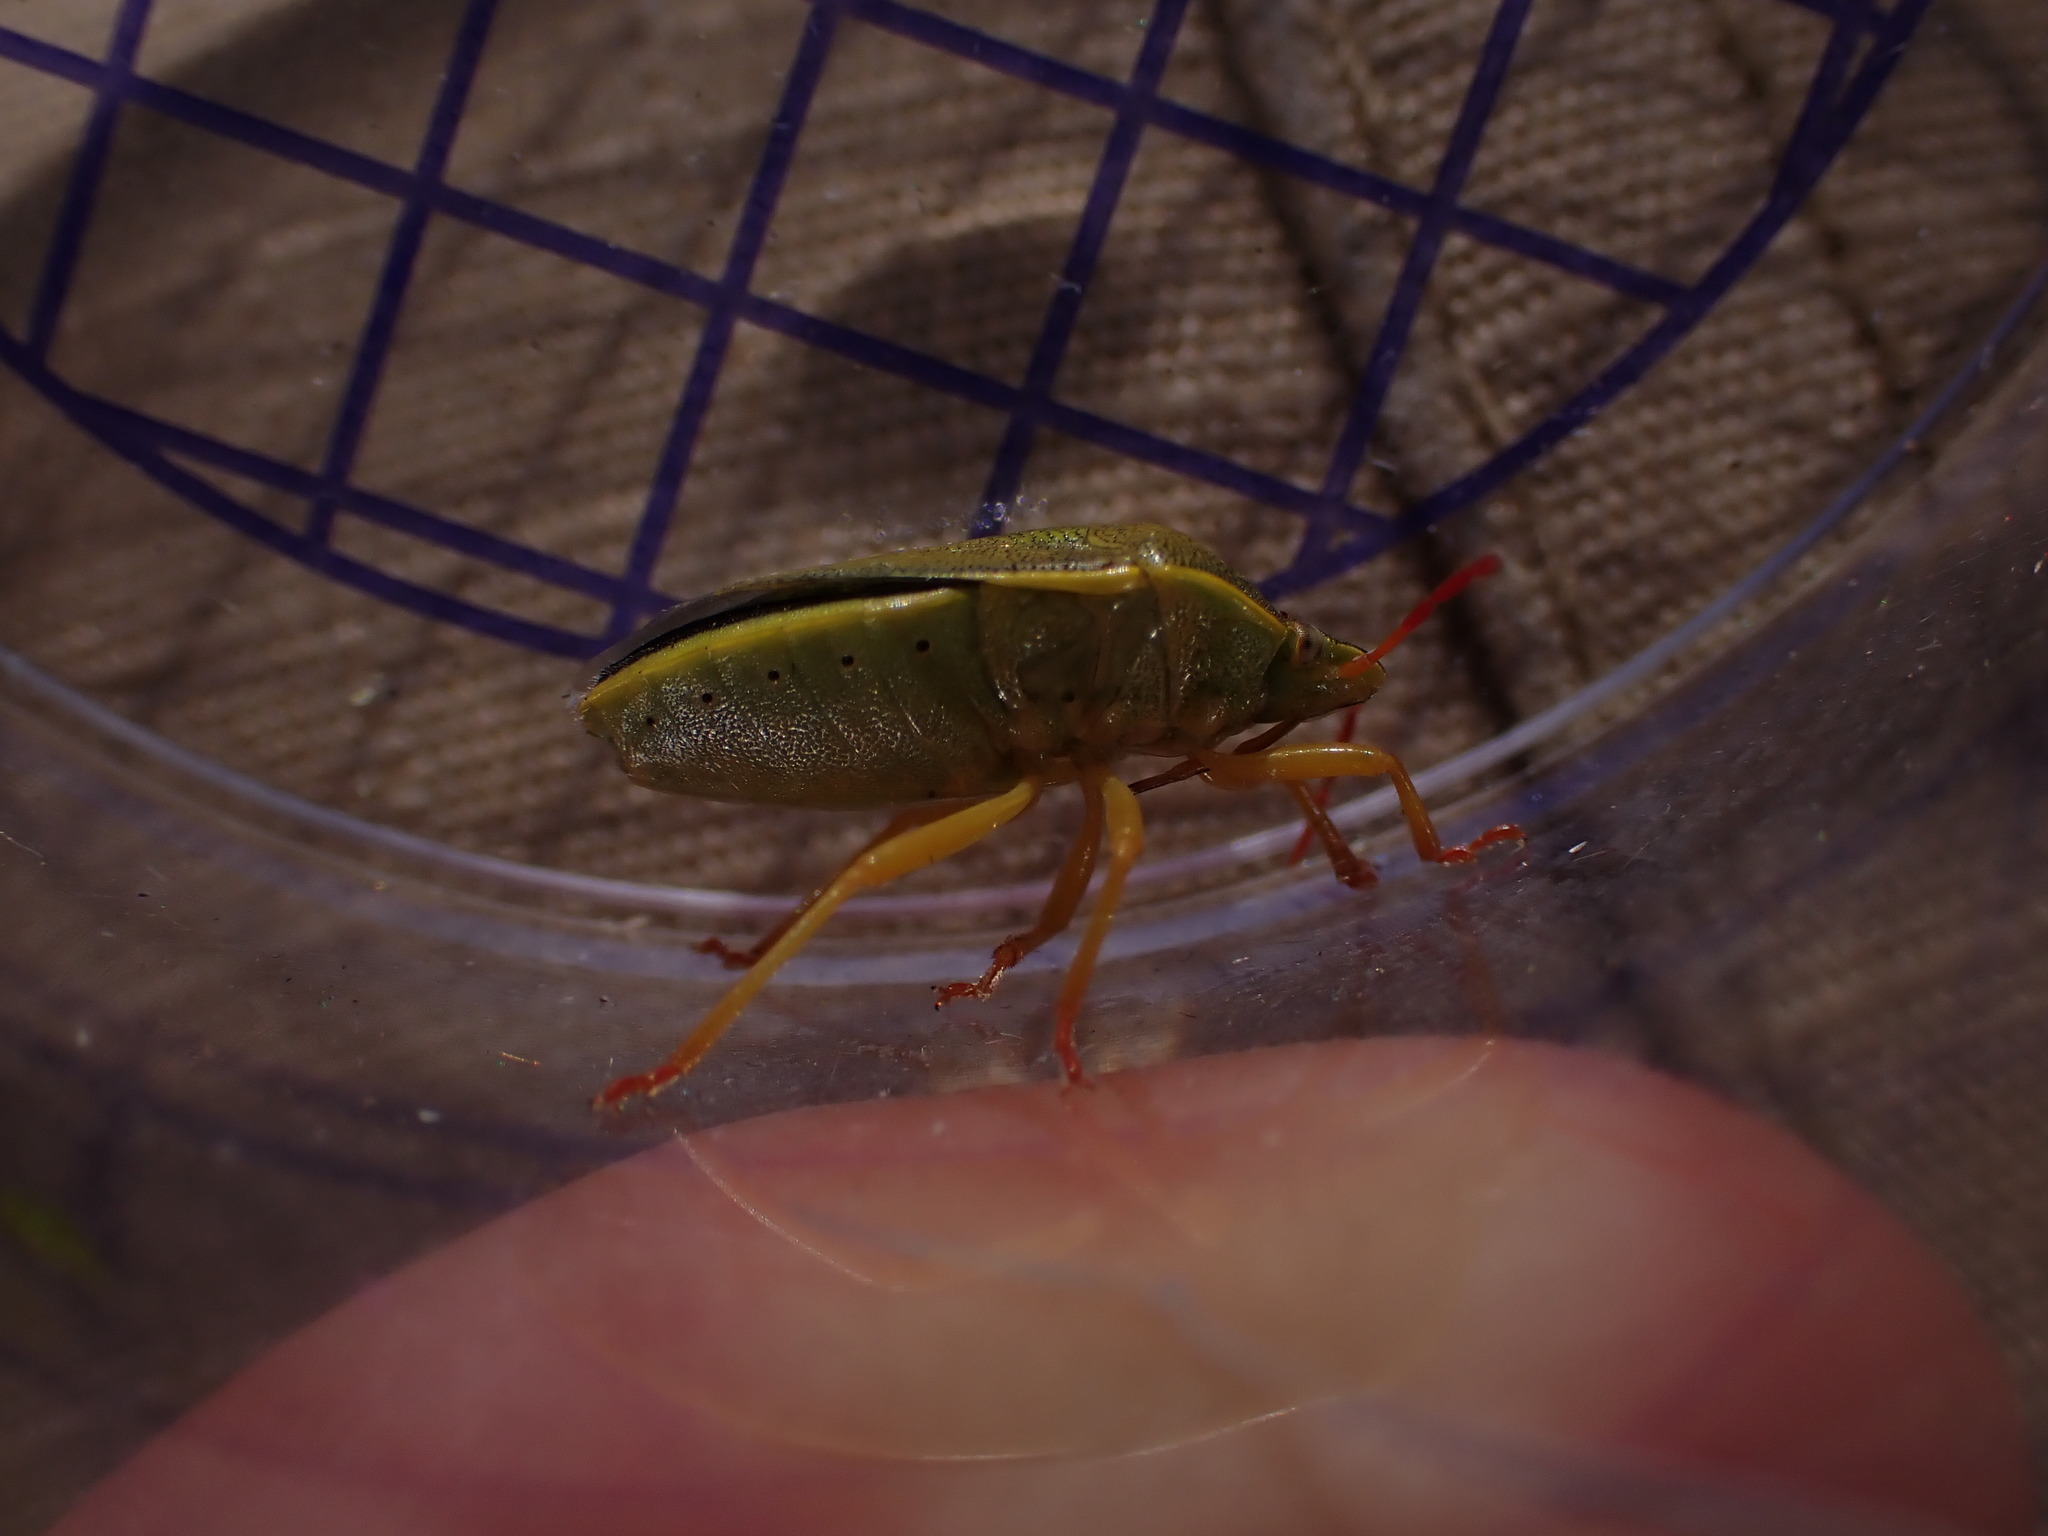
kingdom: Animalia
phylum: Arthropoda
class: Insecta
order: Hemiptera
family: Pentatomidae
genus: Piezodorus
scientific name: Piezodorus lituratus
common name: Stink bug
